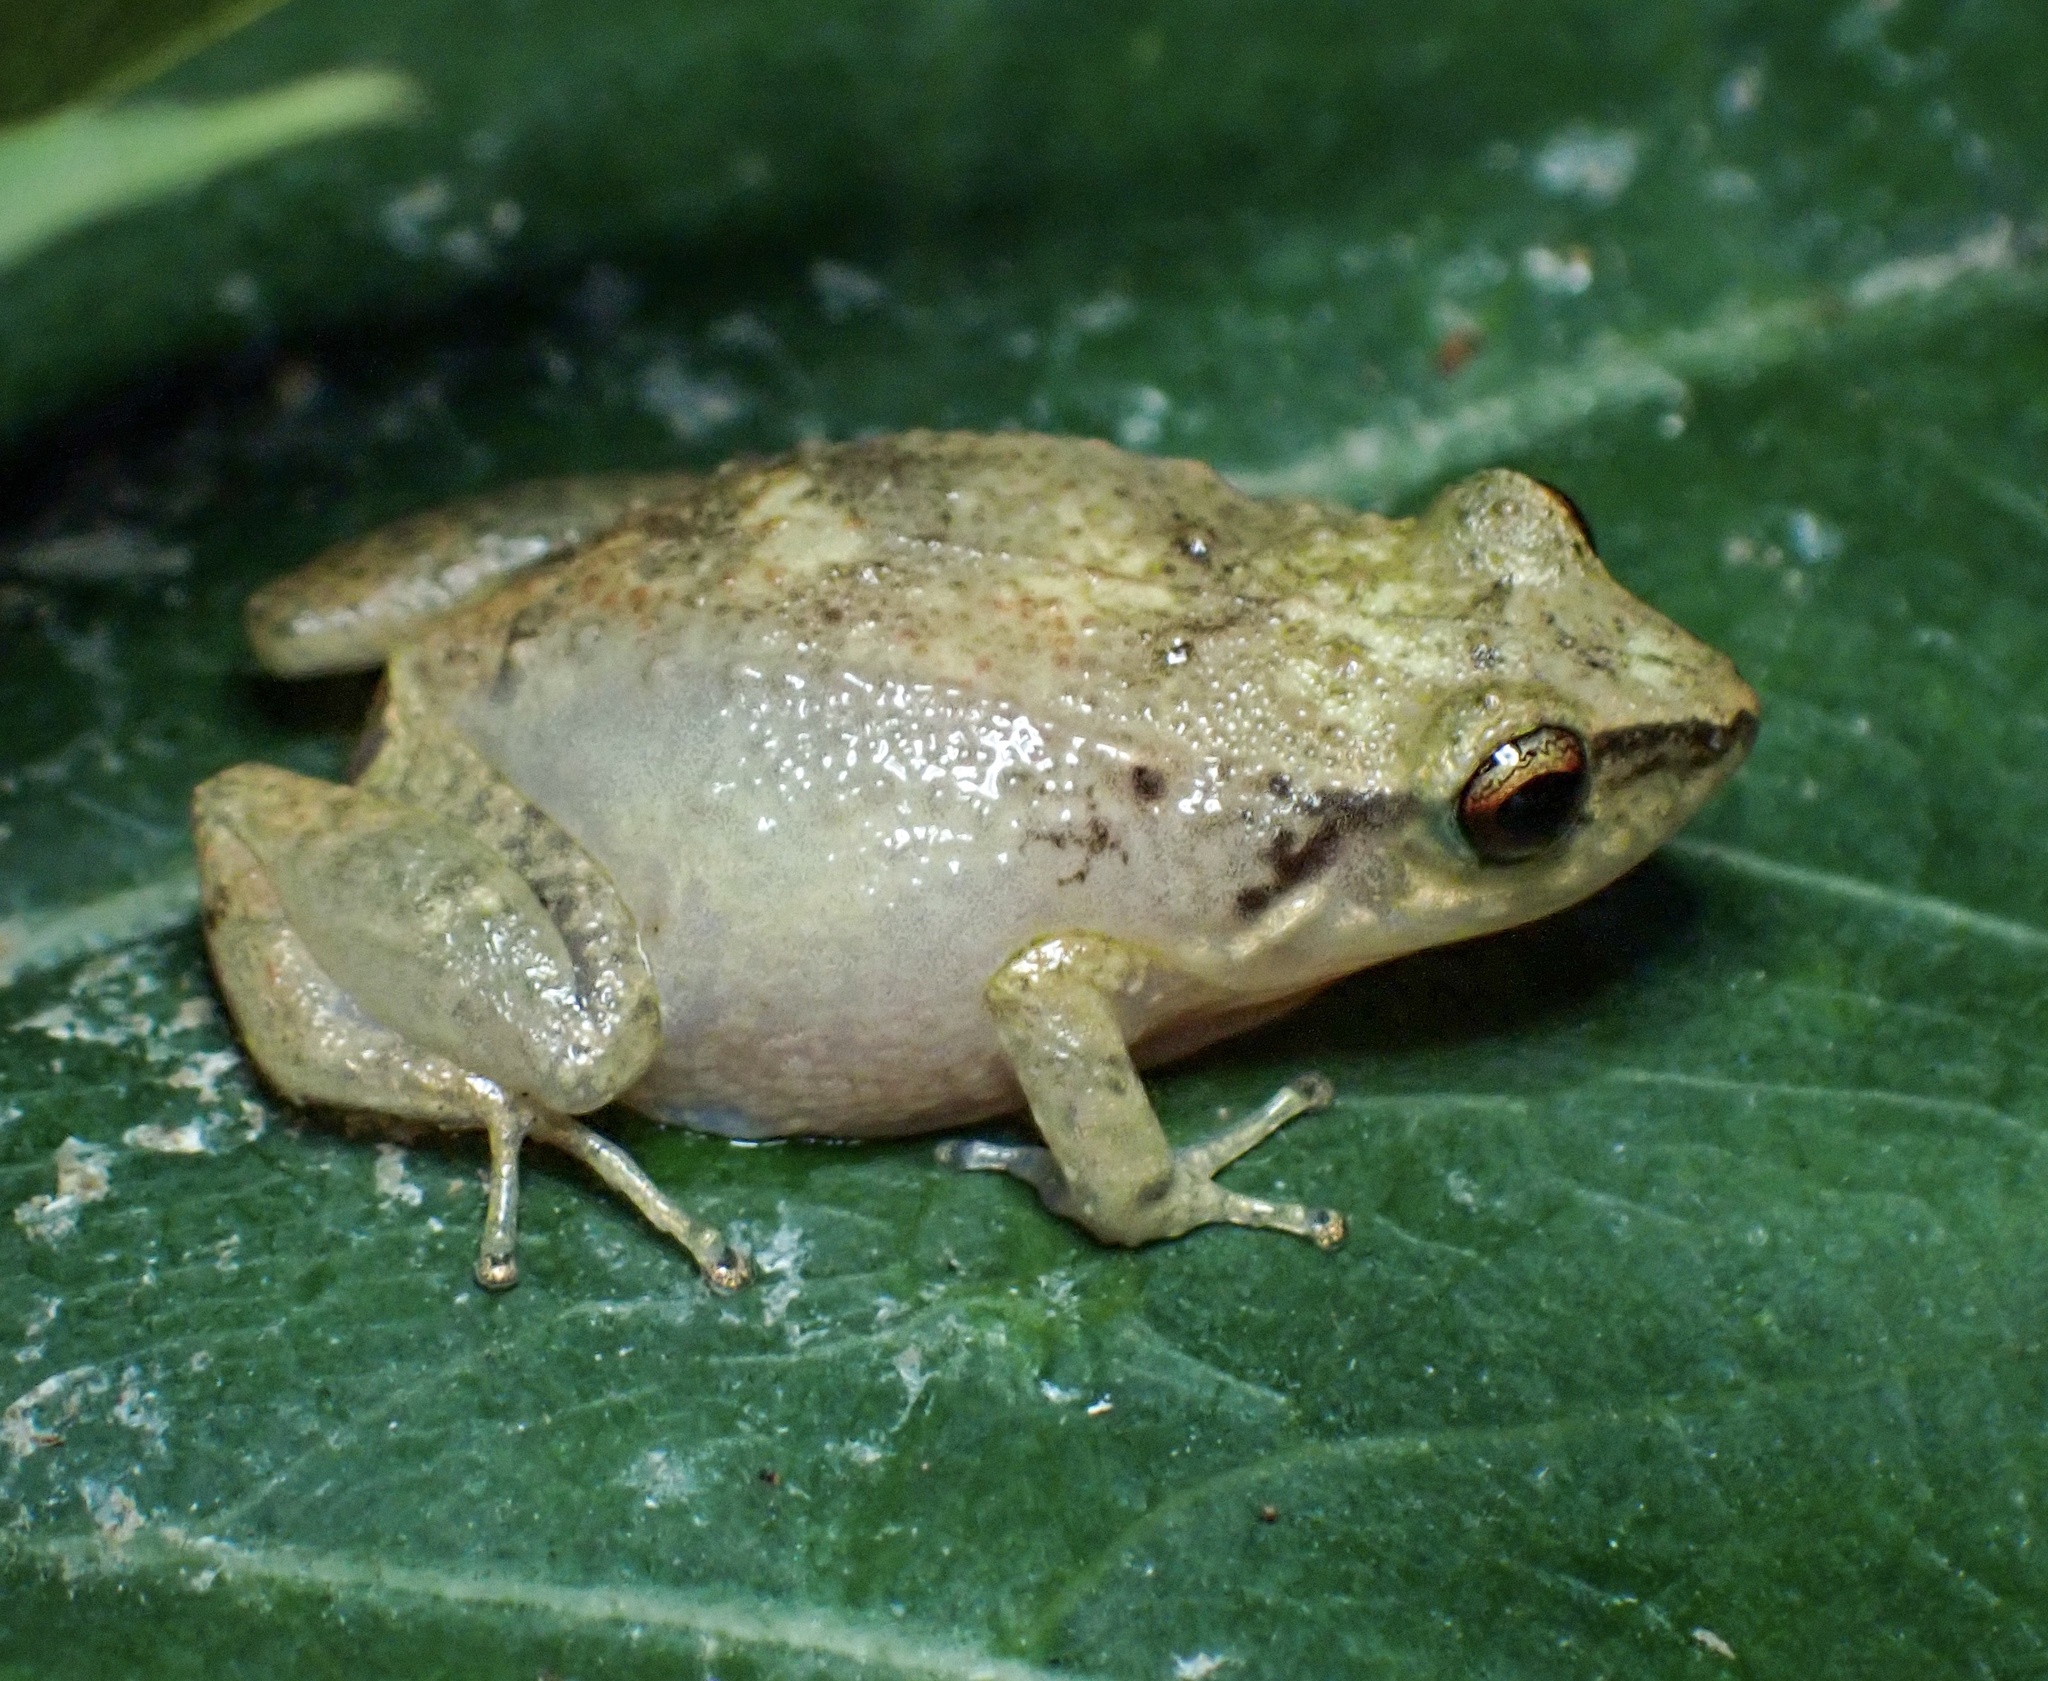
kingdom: Animalia
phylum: Chordata
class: Amphibia
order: Anura
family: Eleutherodactylidae
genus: Eleutherodactylus
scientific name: Eleutherodactylus johnstonei
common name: Johnstone's robber frog
